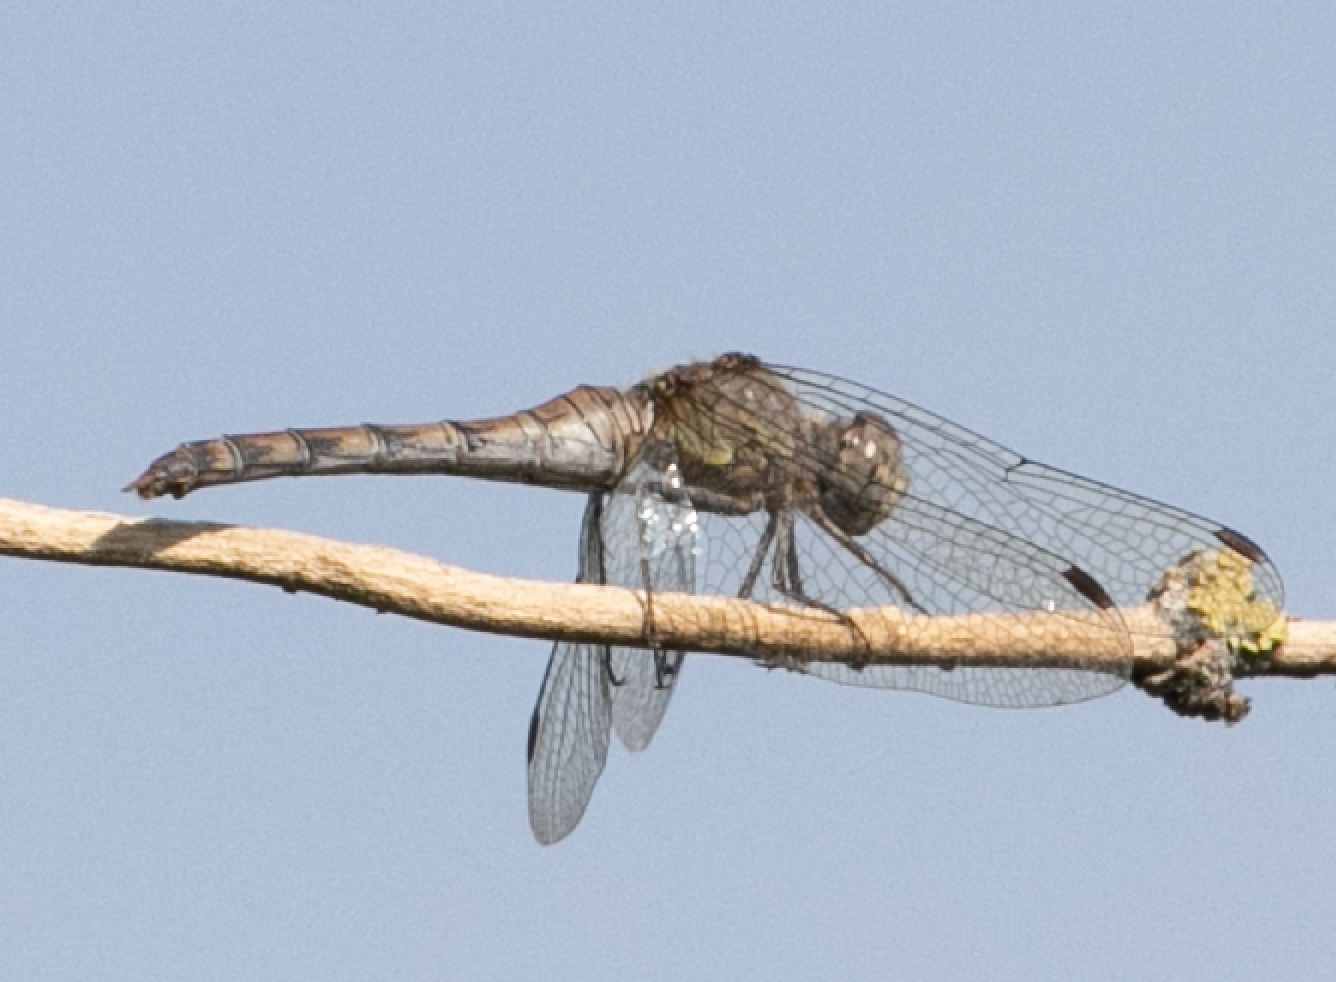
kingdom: Animalia
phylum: Arthropoda
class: Insecta
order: Odonata
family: Libellulidae
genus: Sympetrum
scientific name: Sympetrum striolatum
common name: Common darter
